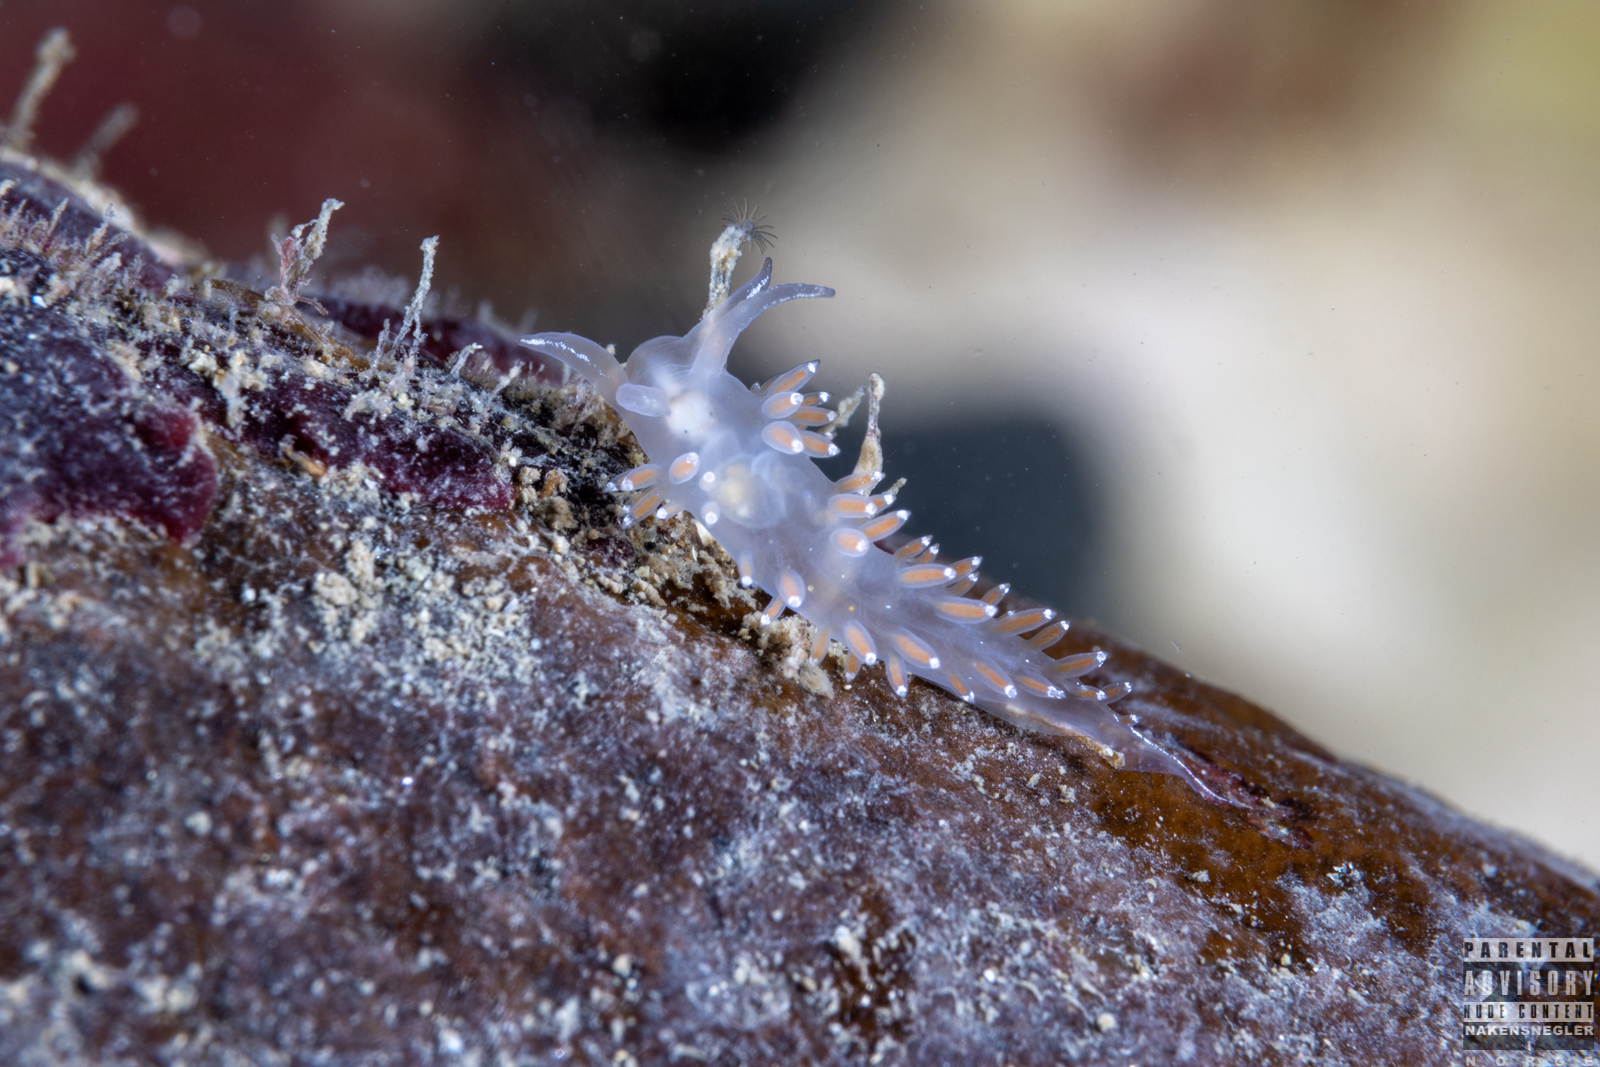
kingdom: Animalia
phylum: Mollusca
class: Gastropoda
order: Nudibranchia
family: Coryphellidae
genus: Coryphella
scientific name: Coryphella verrucosa
